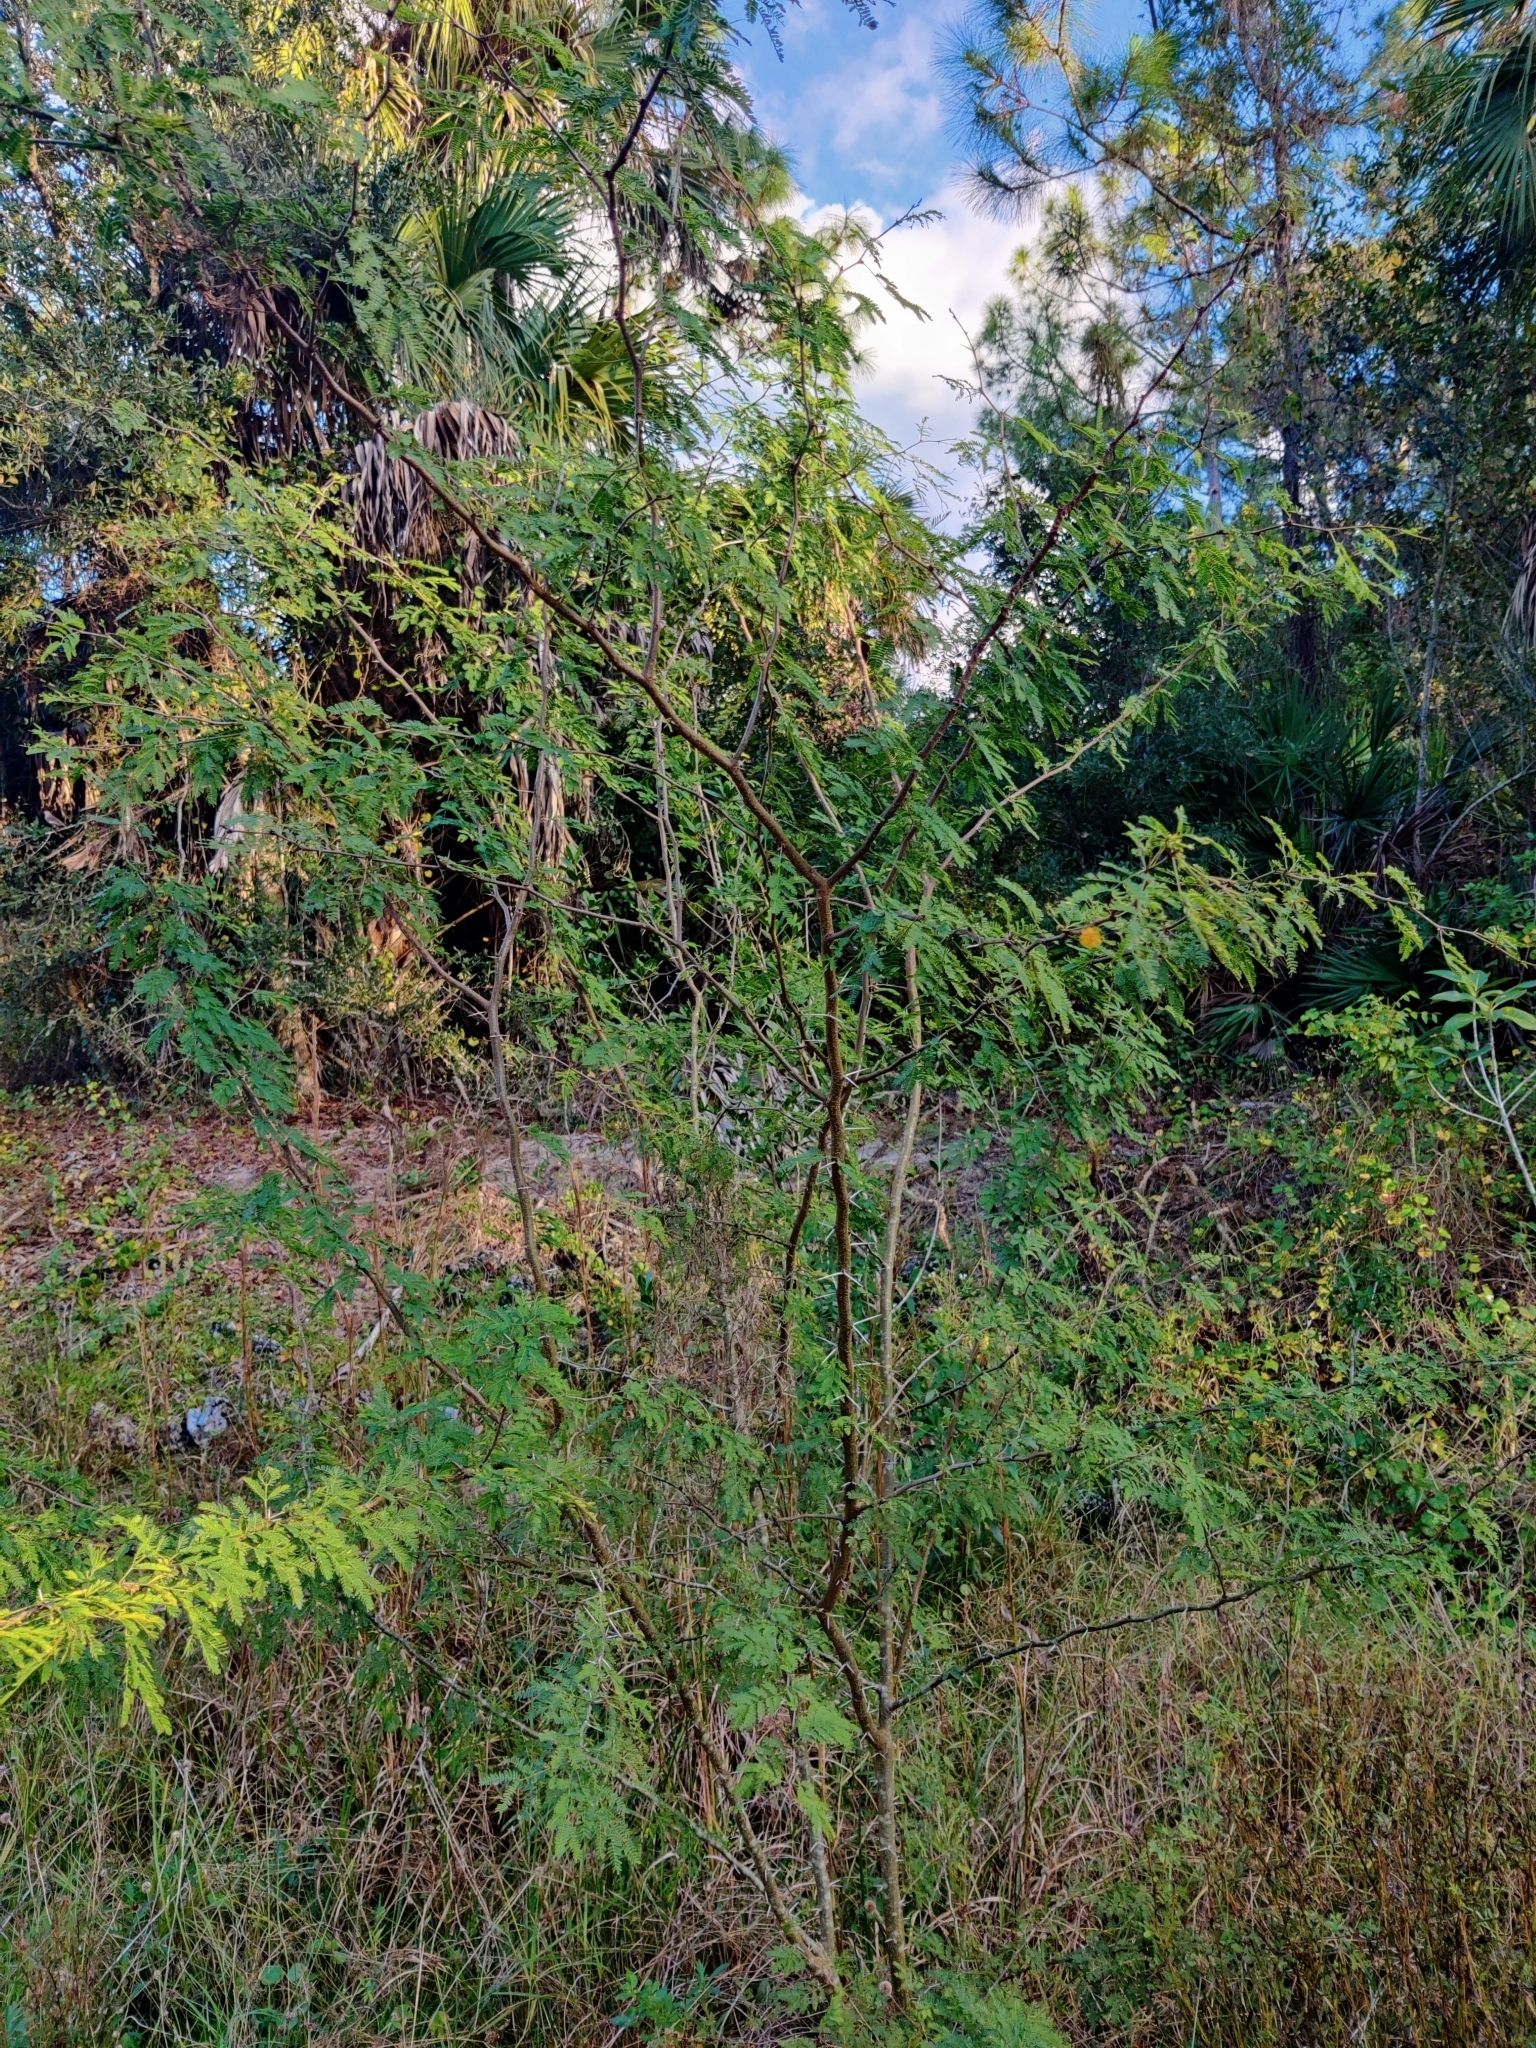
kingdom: Plantae
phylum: Tracheophyta
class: Magnoliopsida
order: Fabales
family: Fabaceae
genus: Vachellia
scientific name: Vachellia farnesiana
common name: Sweet acacia
